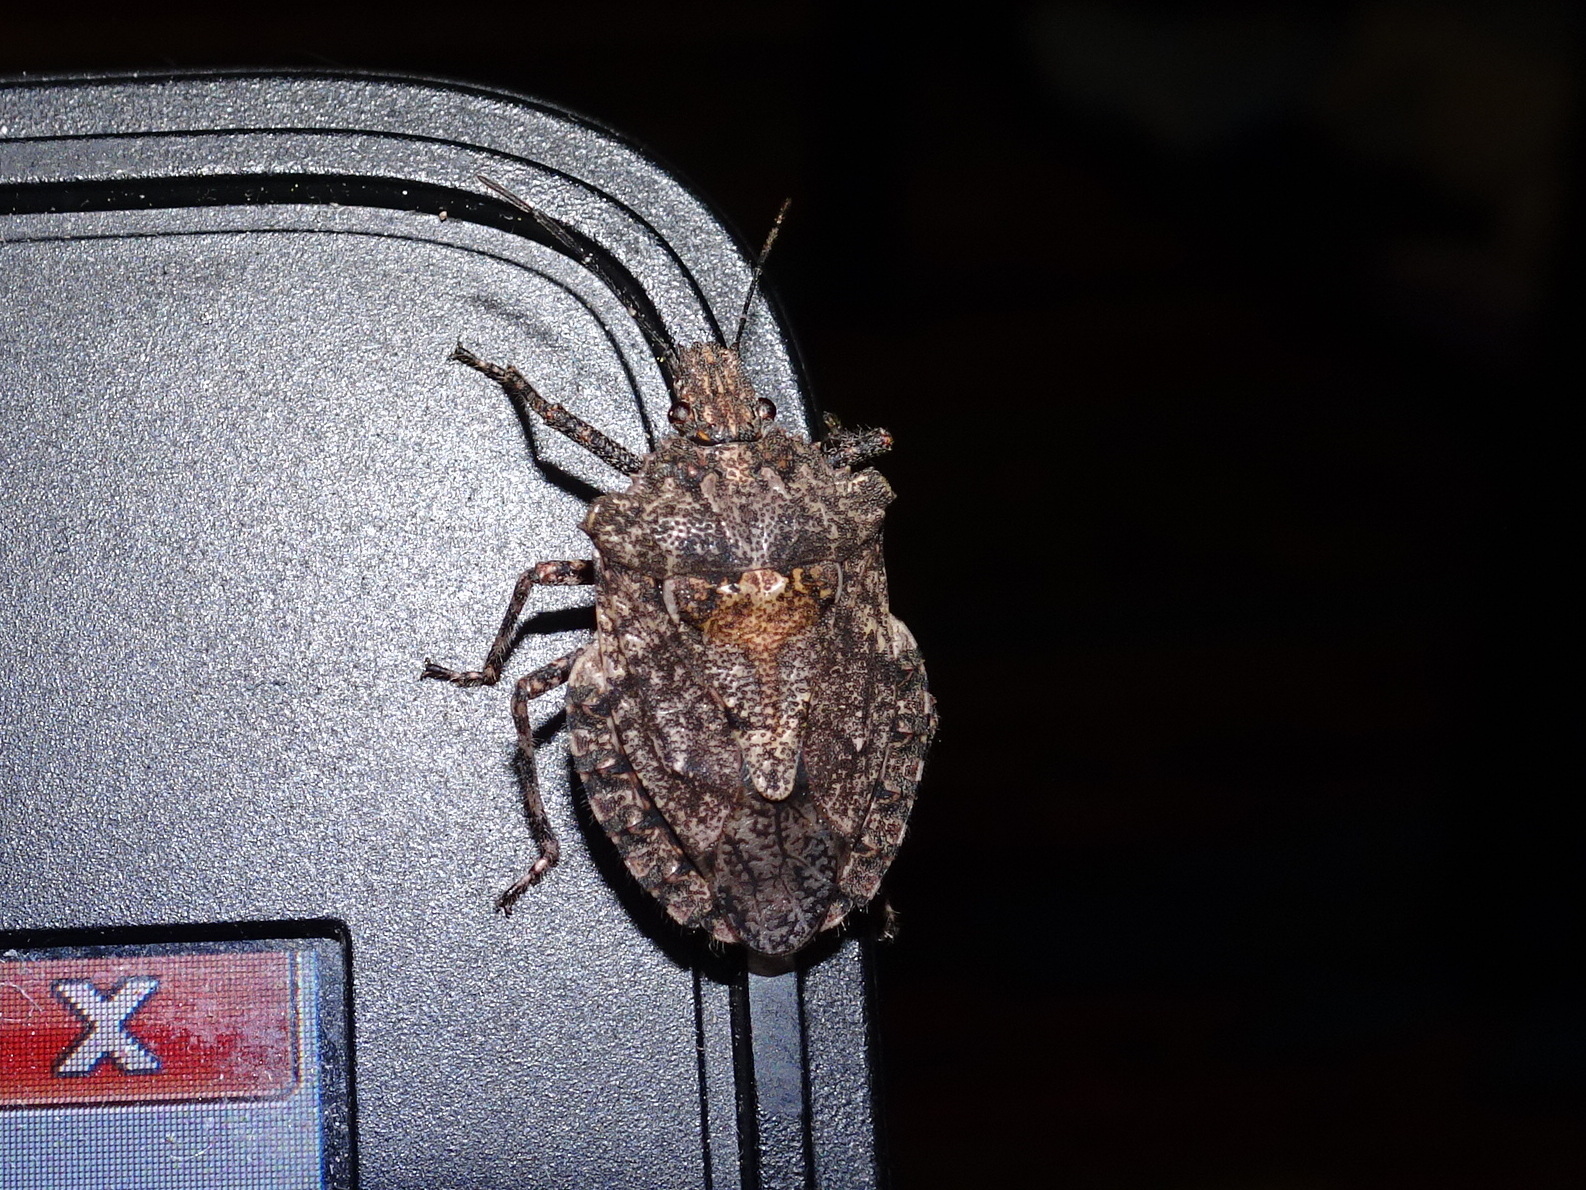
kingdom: Animalia
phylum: Arthropoda
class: Insecta
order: Hemiptera
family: Pentatomidae
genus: Brochymena
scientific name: Brochymena arborea
